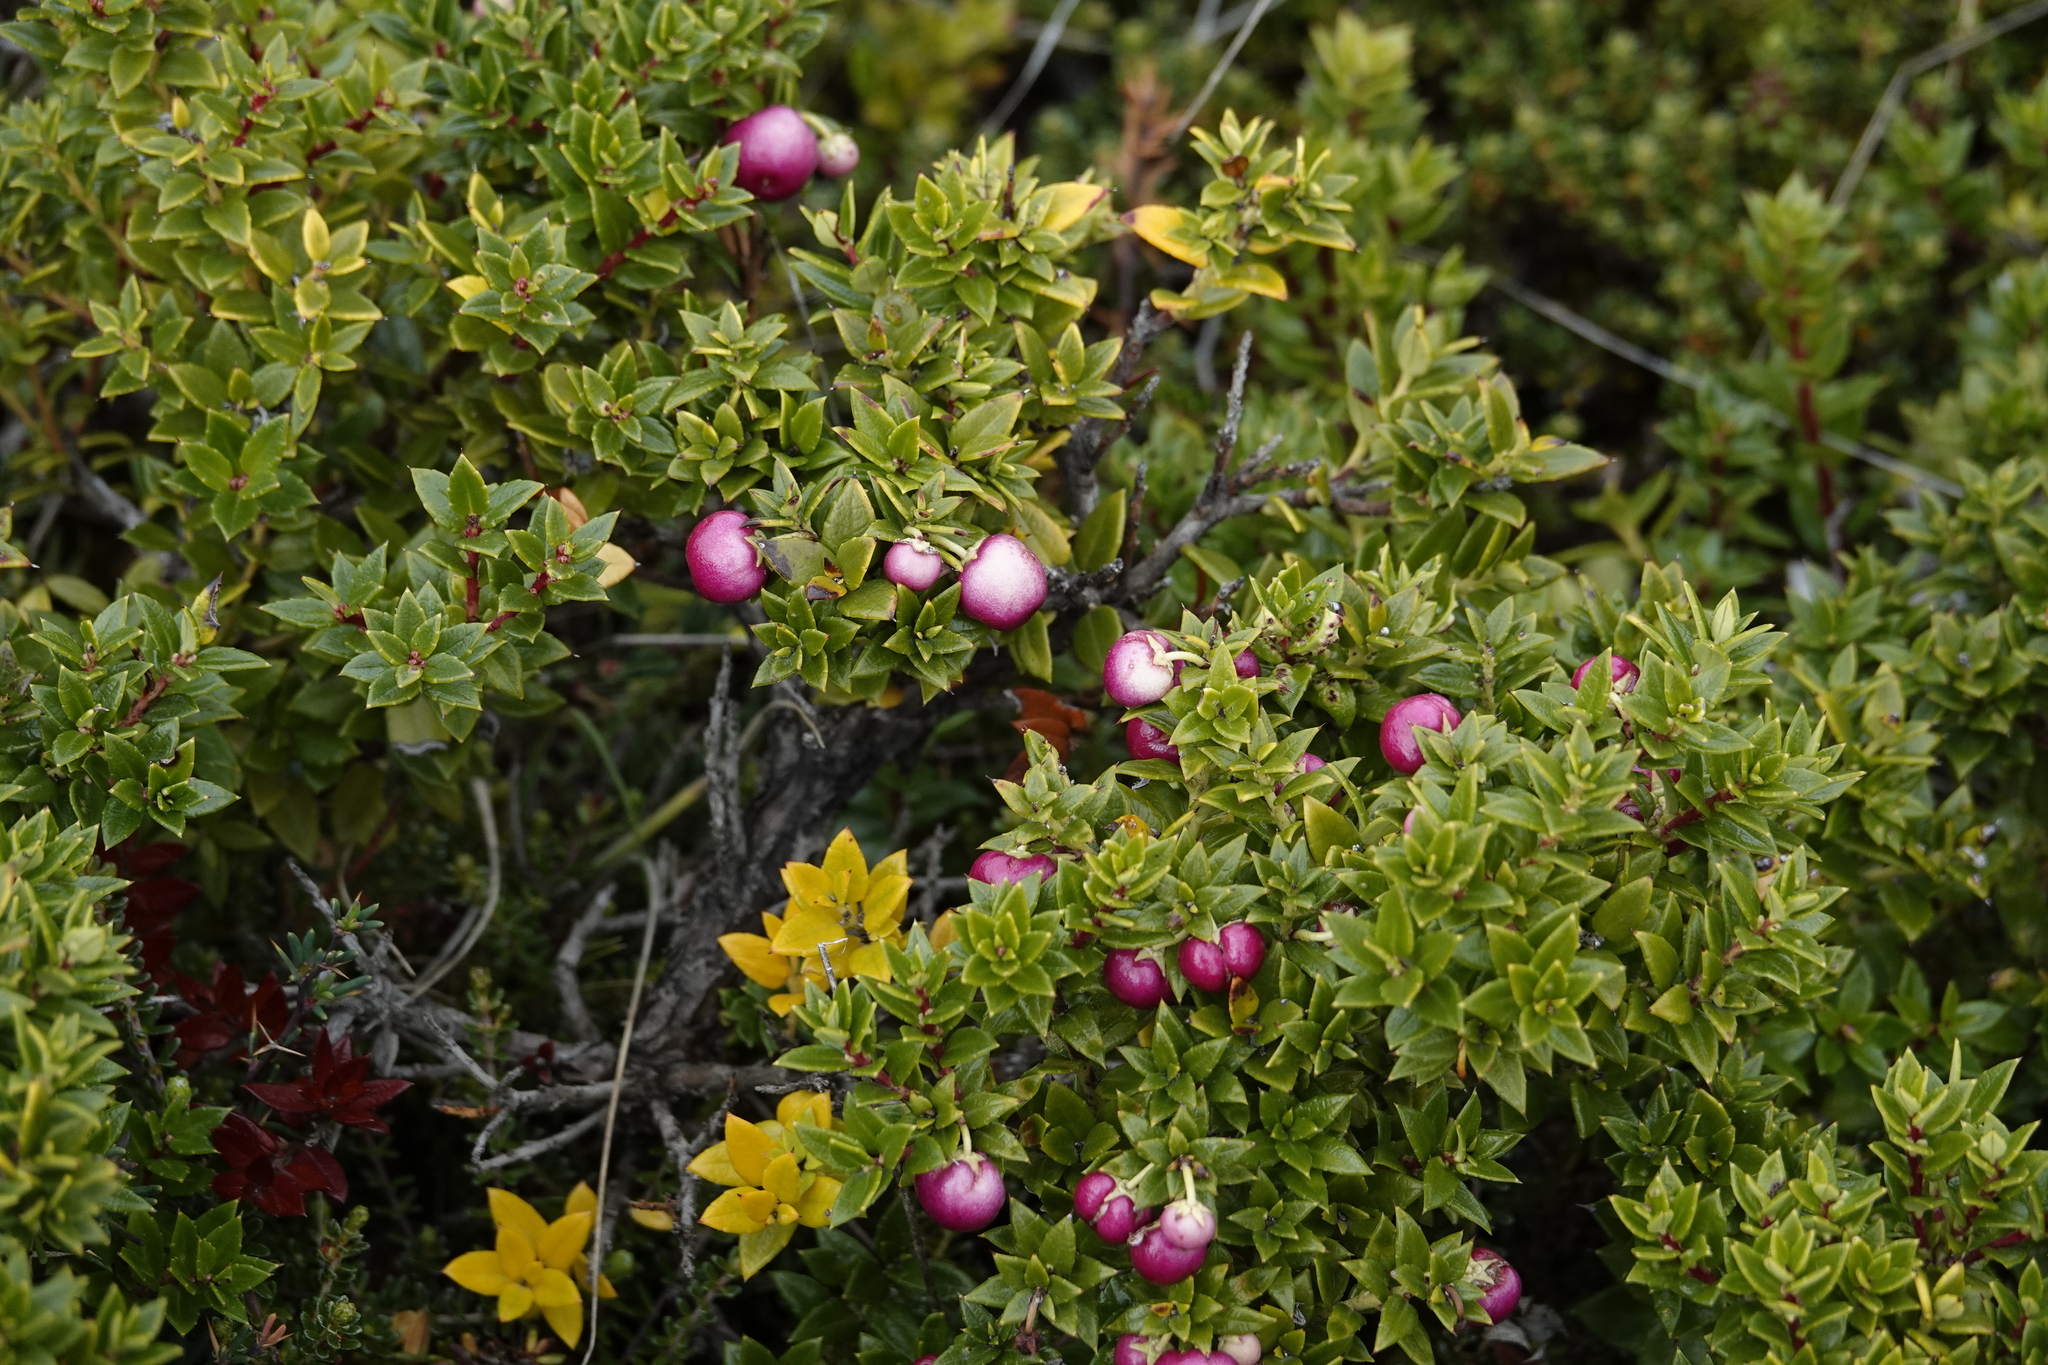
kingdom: Plantae
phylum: Tracheophyta
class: Magnoliopsida
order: Ericales
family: Ericaceae
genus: Gaultheria
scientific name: Gaultheria mucronata
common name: Prickly heath
